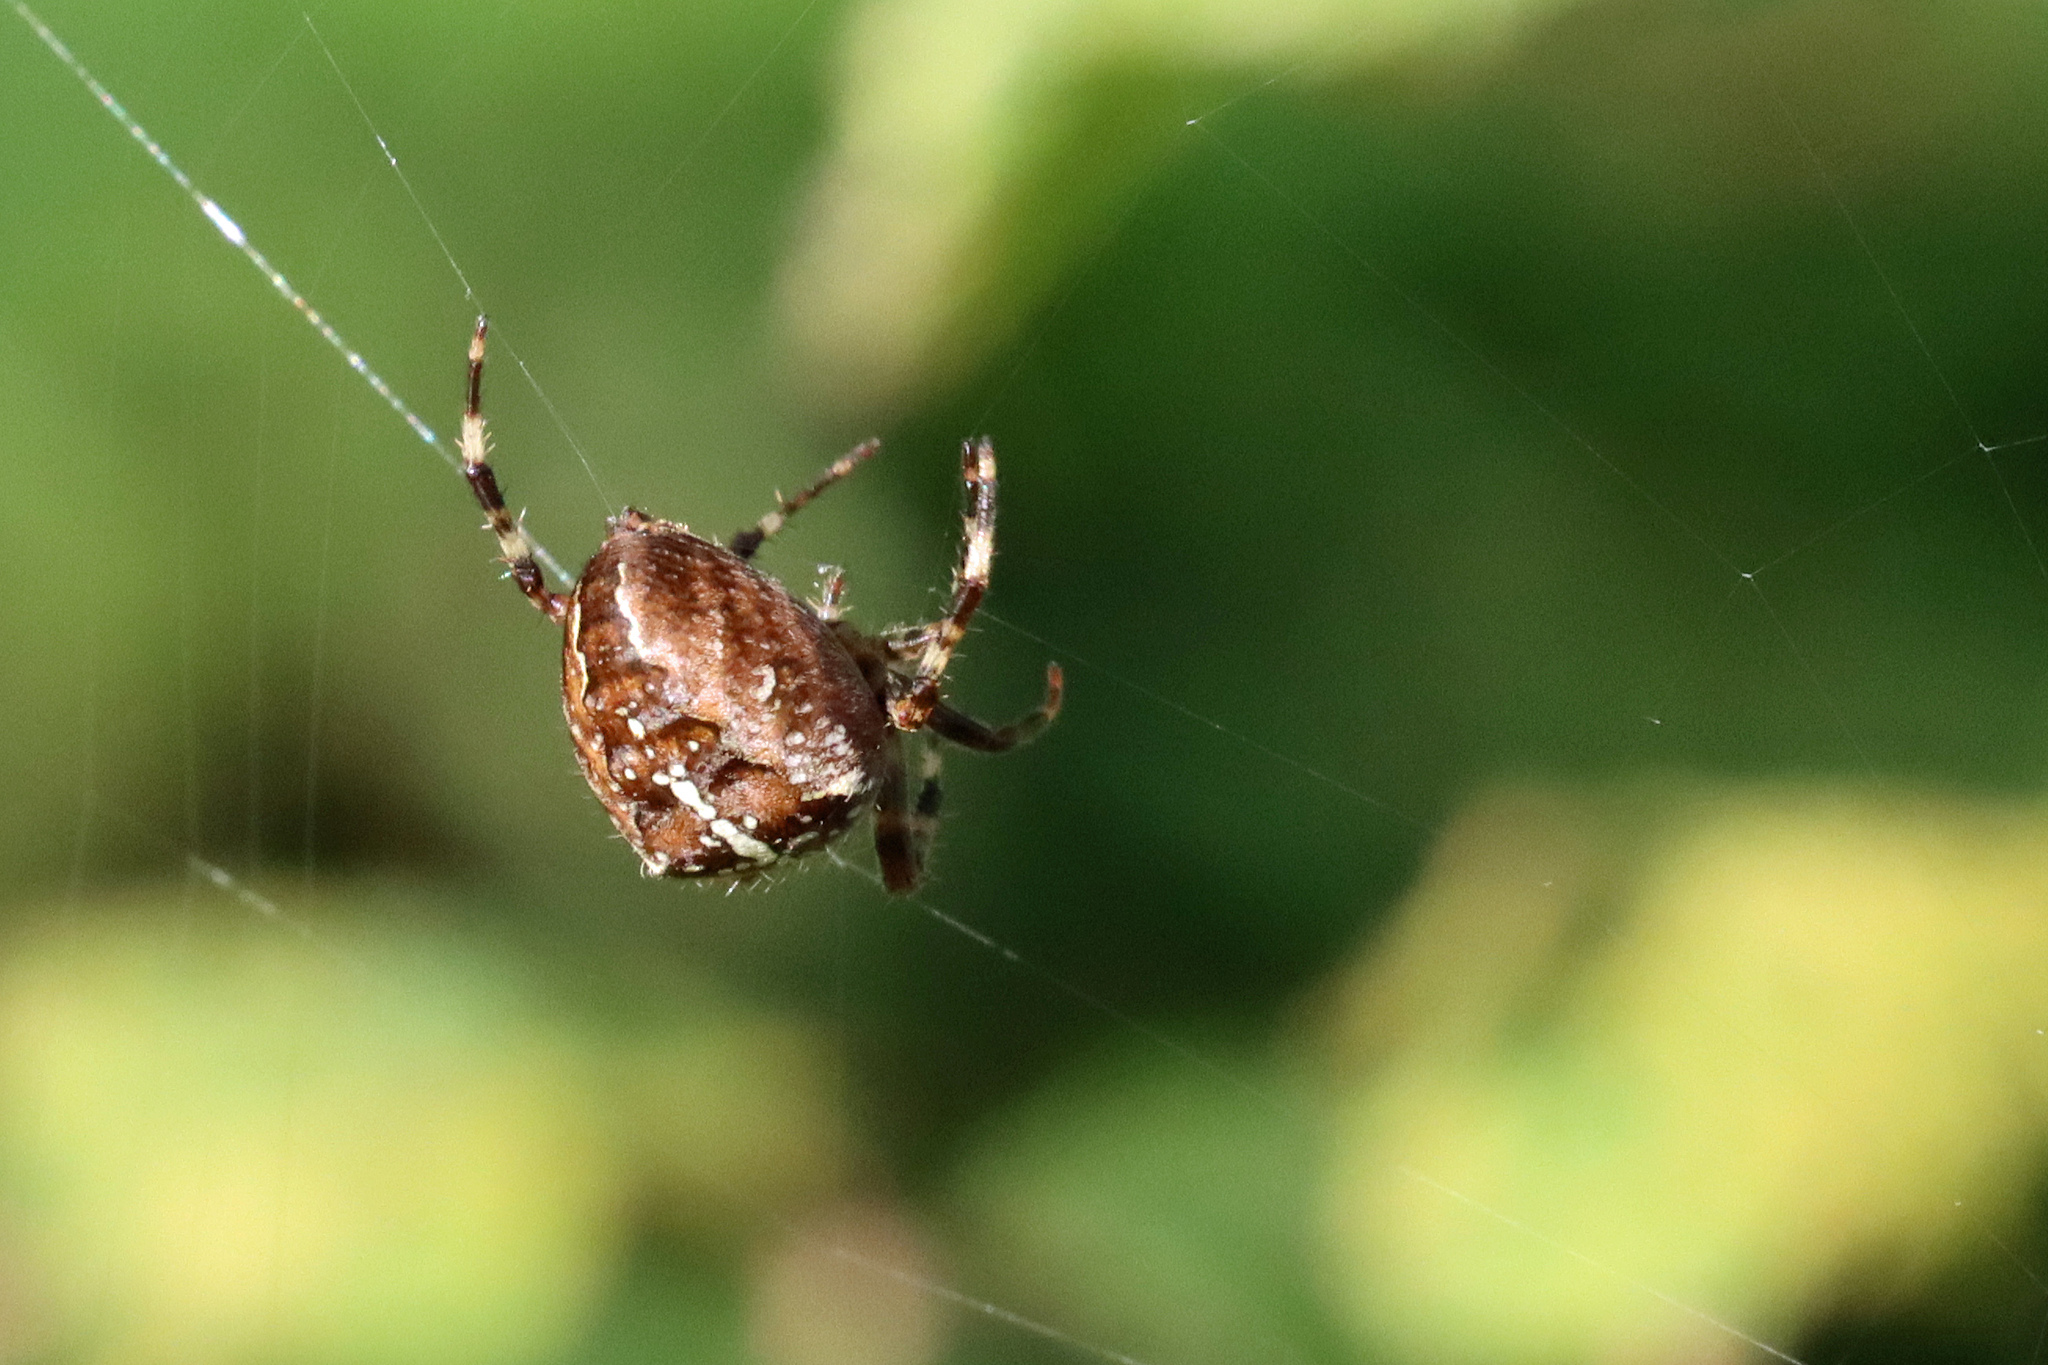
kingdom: Animalia
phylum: Arthropoda
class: Arachnida
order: Araneae
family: Araneidae
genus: Araneus
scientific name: Araneus diadematus
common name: Cross orbweaver
